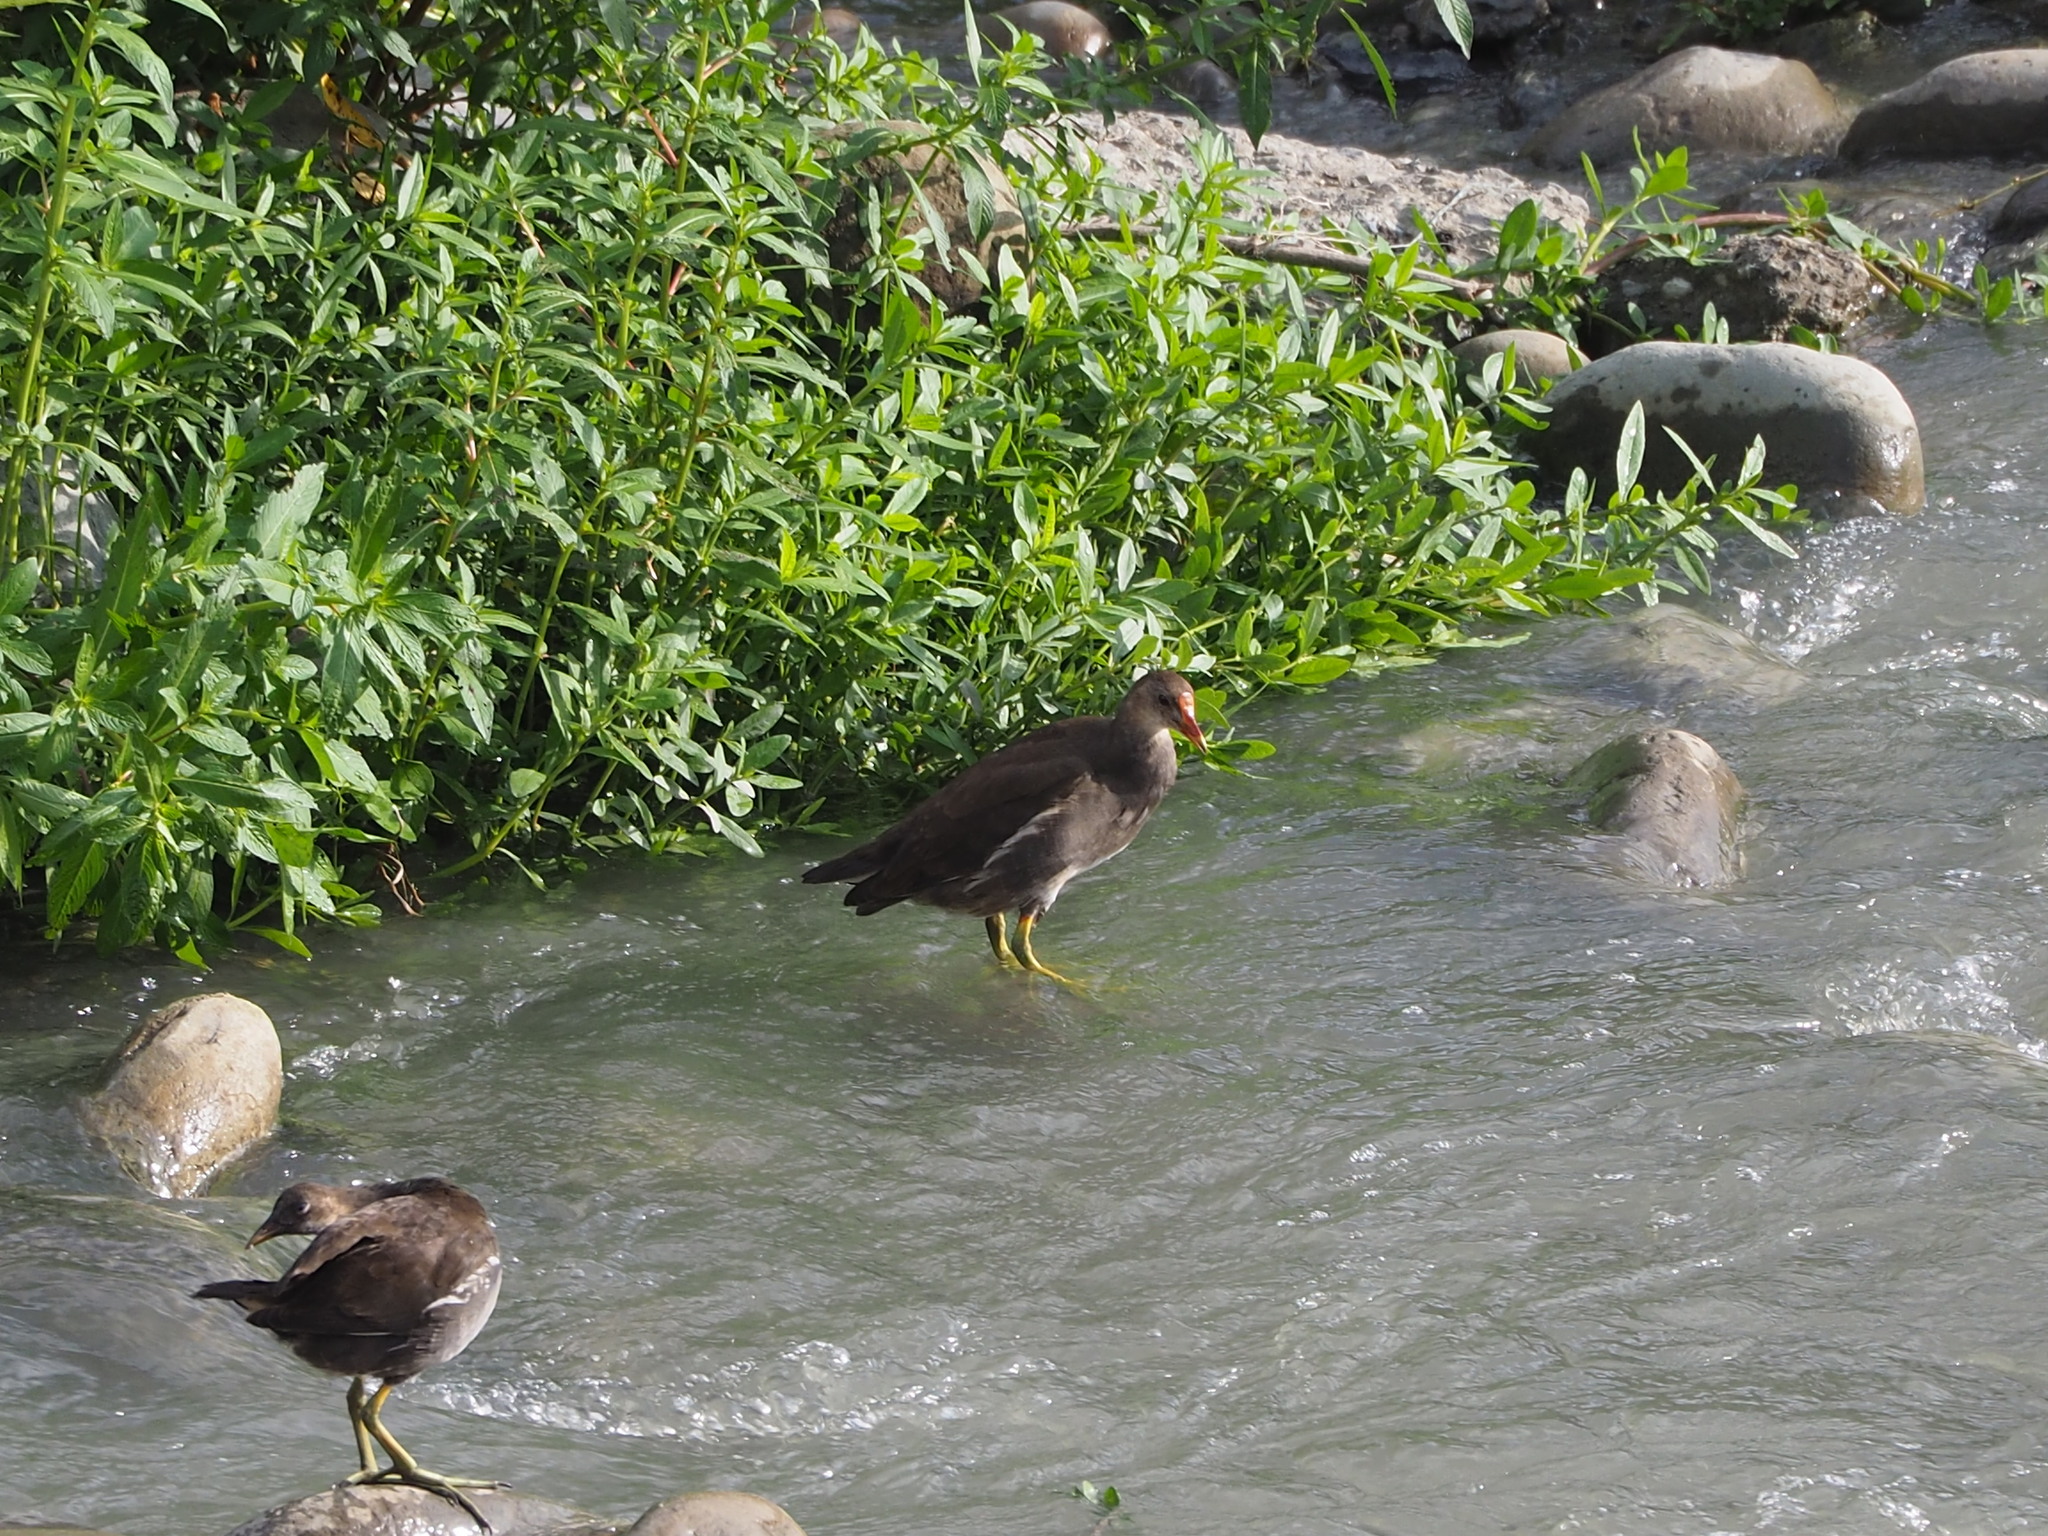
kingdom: Animalia
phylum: Chordata
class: Aves
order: Gruiformes
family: Rallidae
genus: Gallinula
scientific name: Gallinula chloropus
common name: Common moorhen
